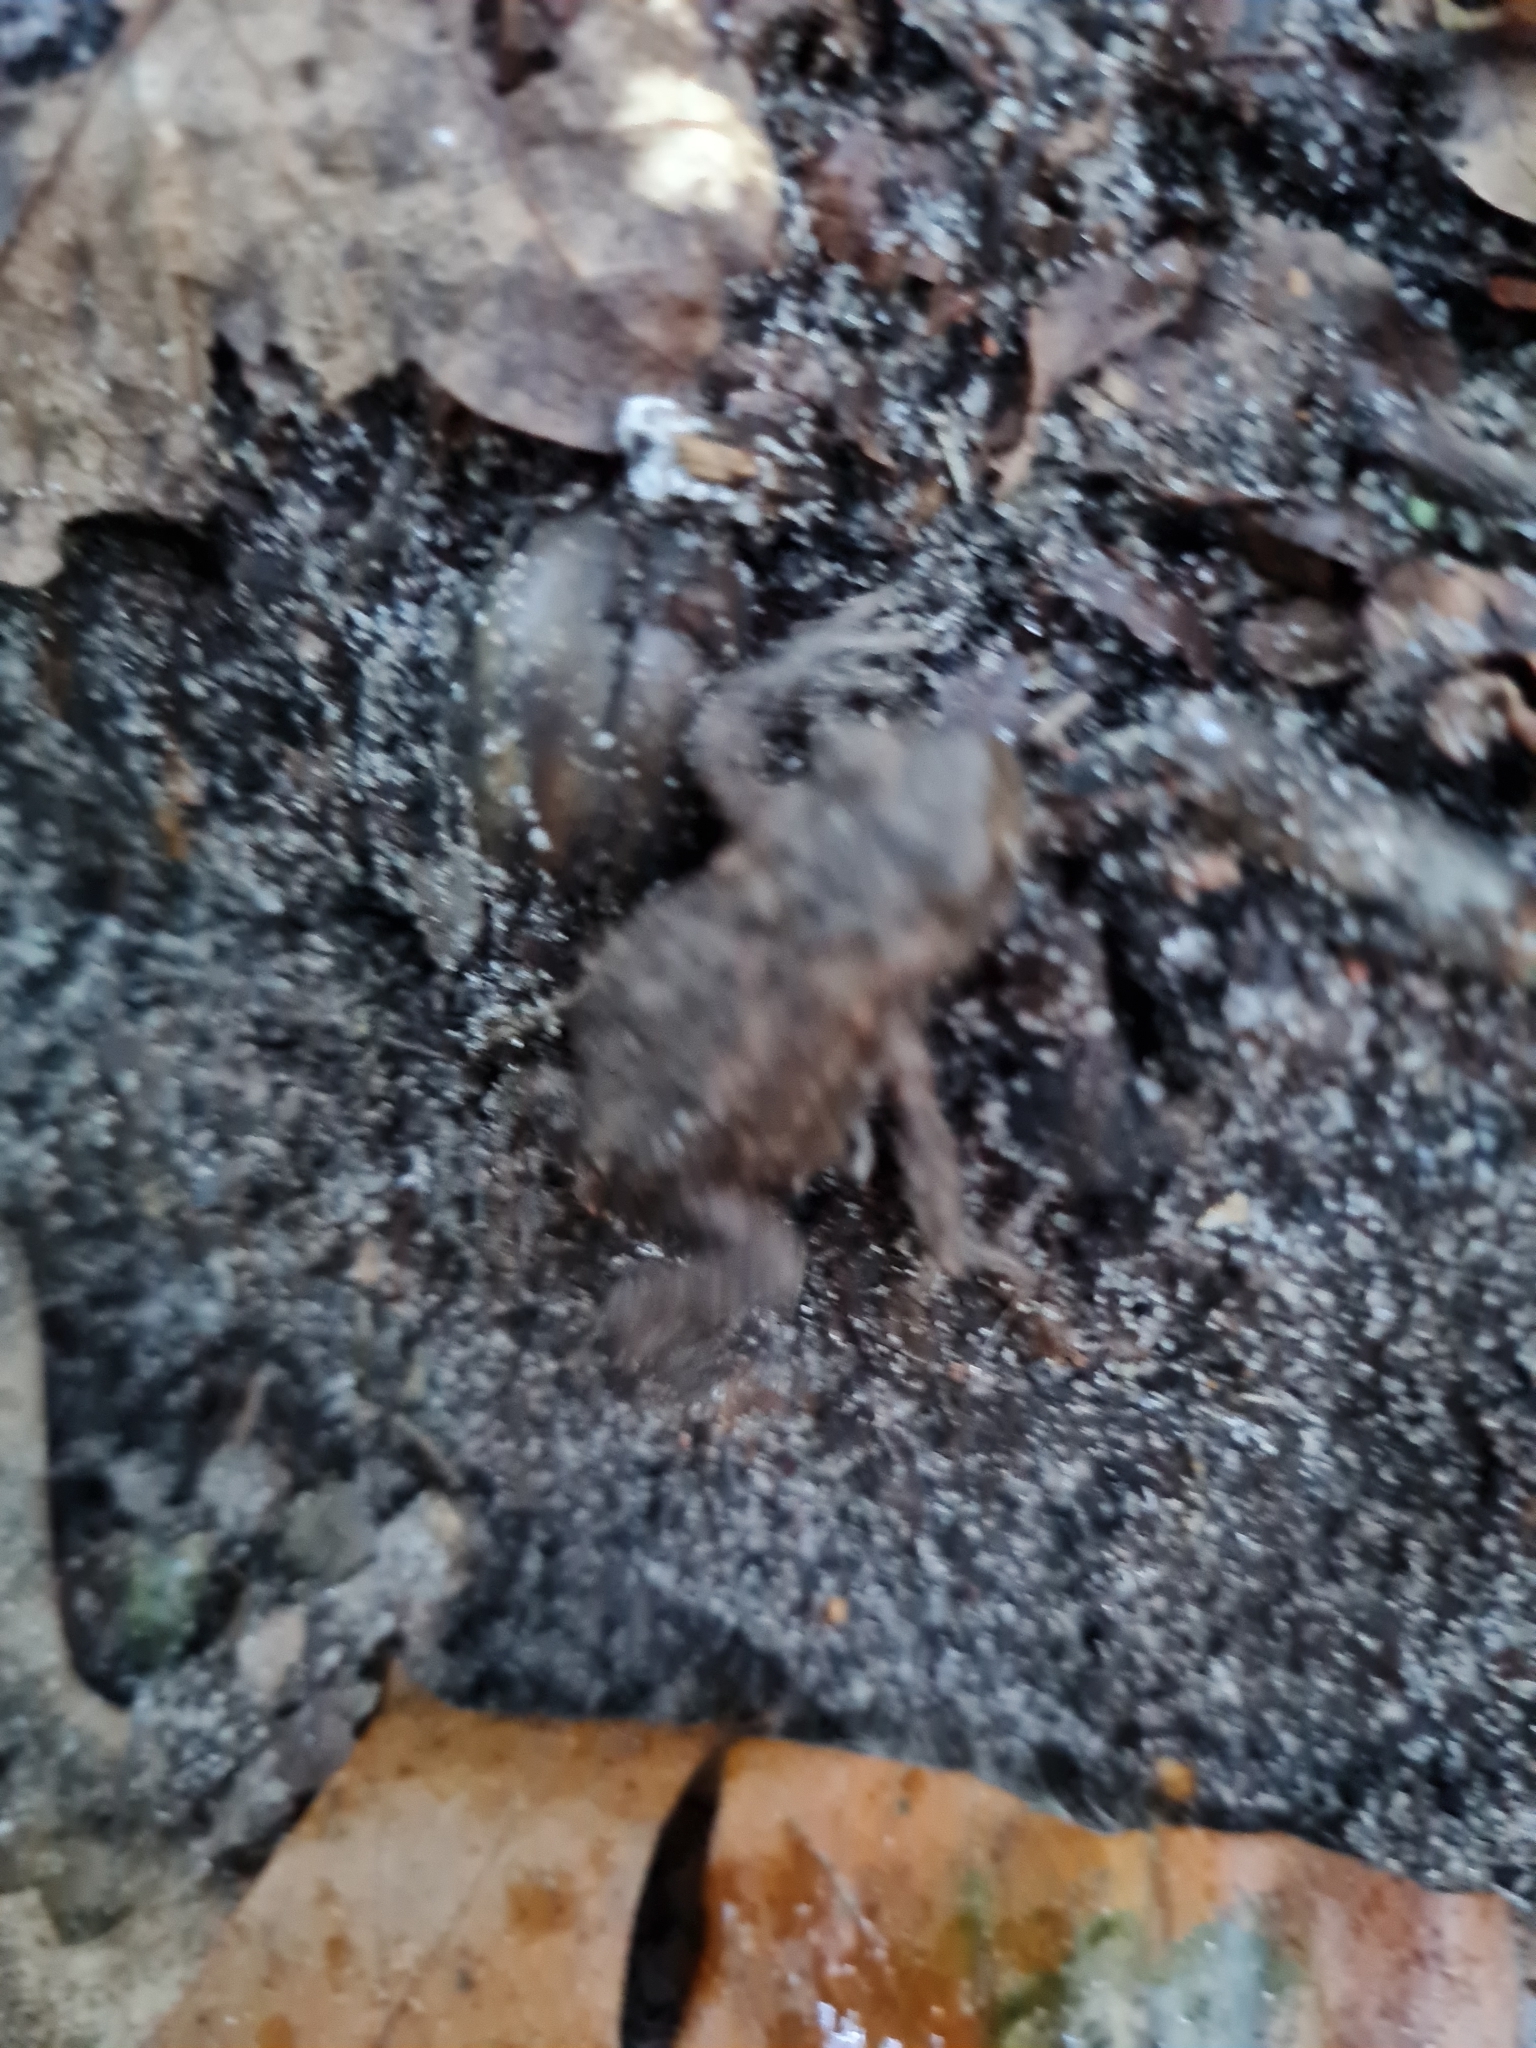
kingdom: Animalia
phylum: Chordata
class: Amphibia
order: Anura
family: Bufonidae
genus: Bufo
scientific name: Bufo bufo
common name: Common toad
